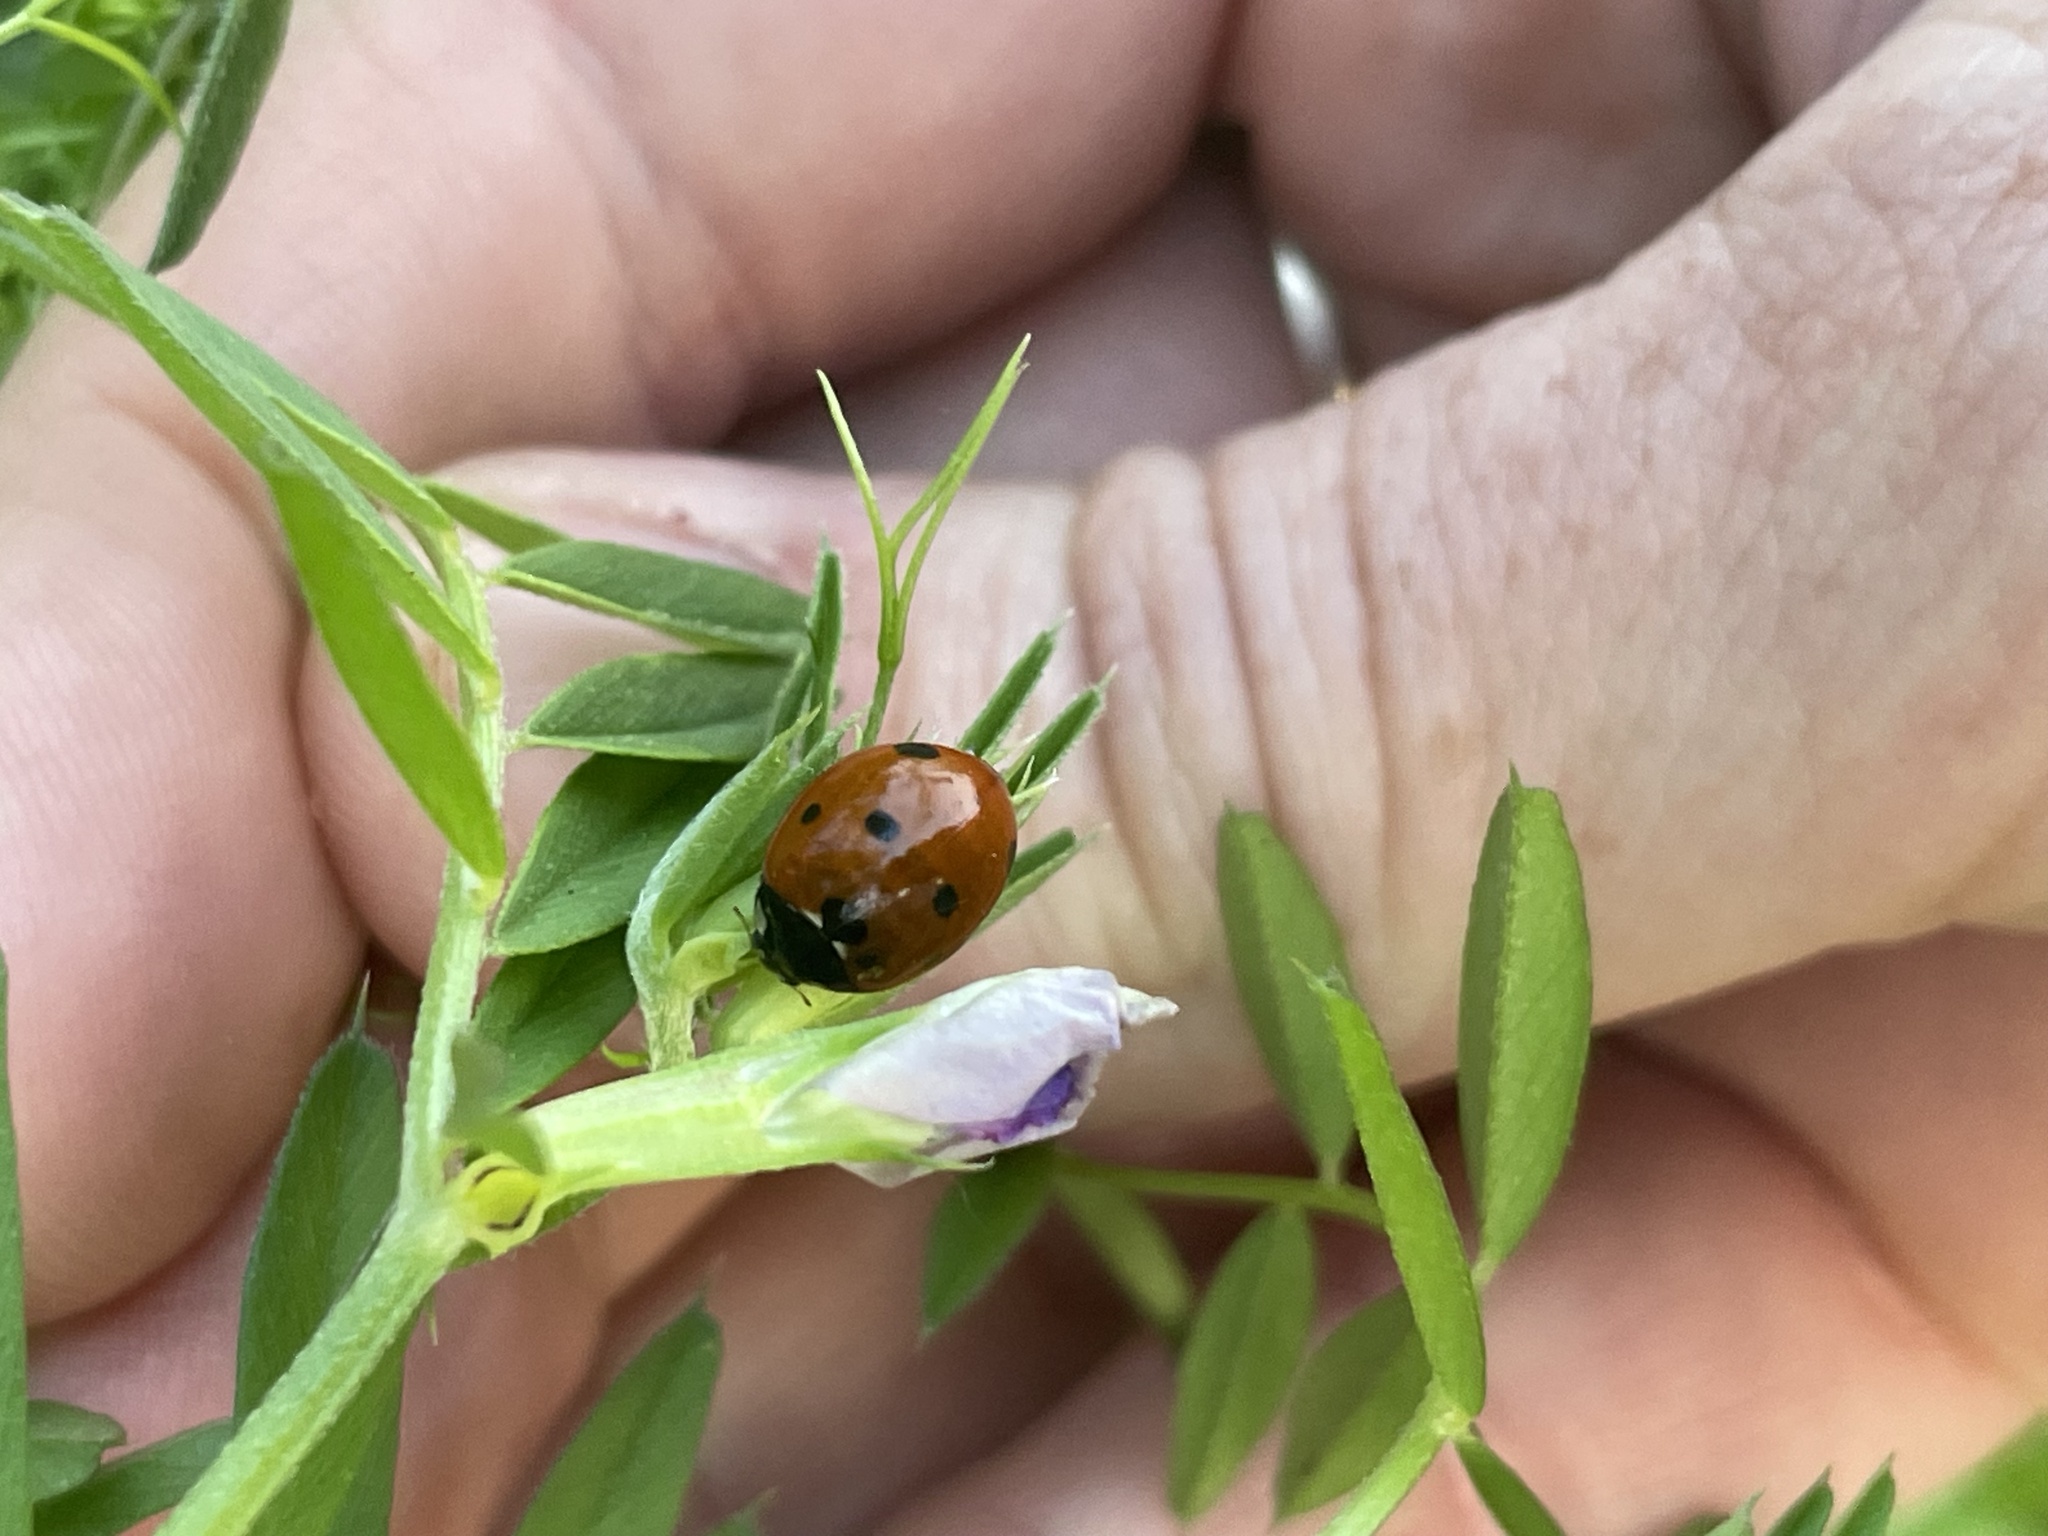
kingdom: Animalia
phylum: Arthropoda
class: Insecta
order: Coleoptera
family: Coccinellidae
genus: Coccinella
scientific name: Coccinella septempunctata
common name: Sevenspotted lady beetle
